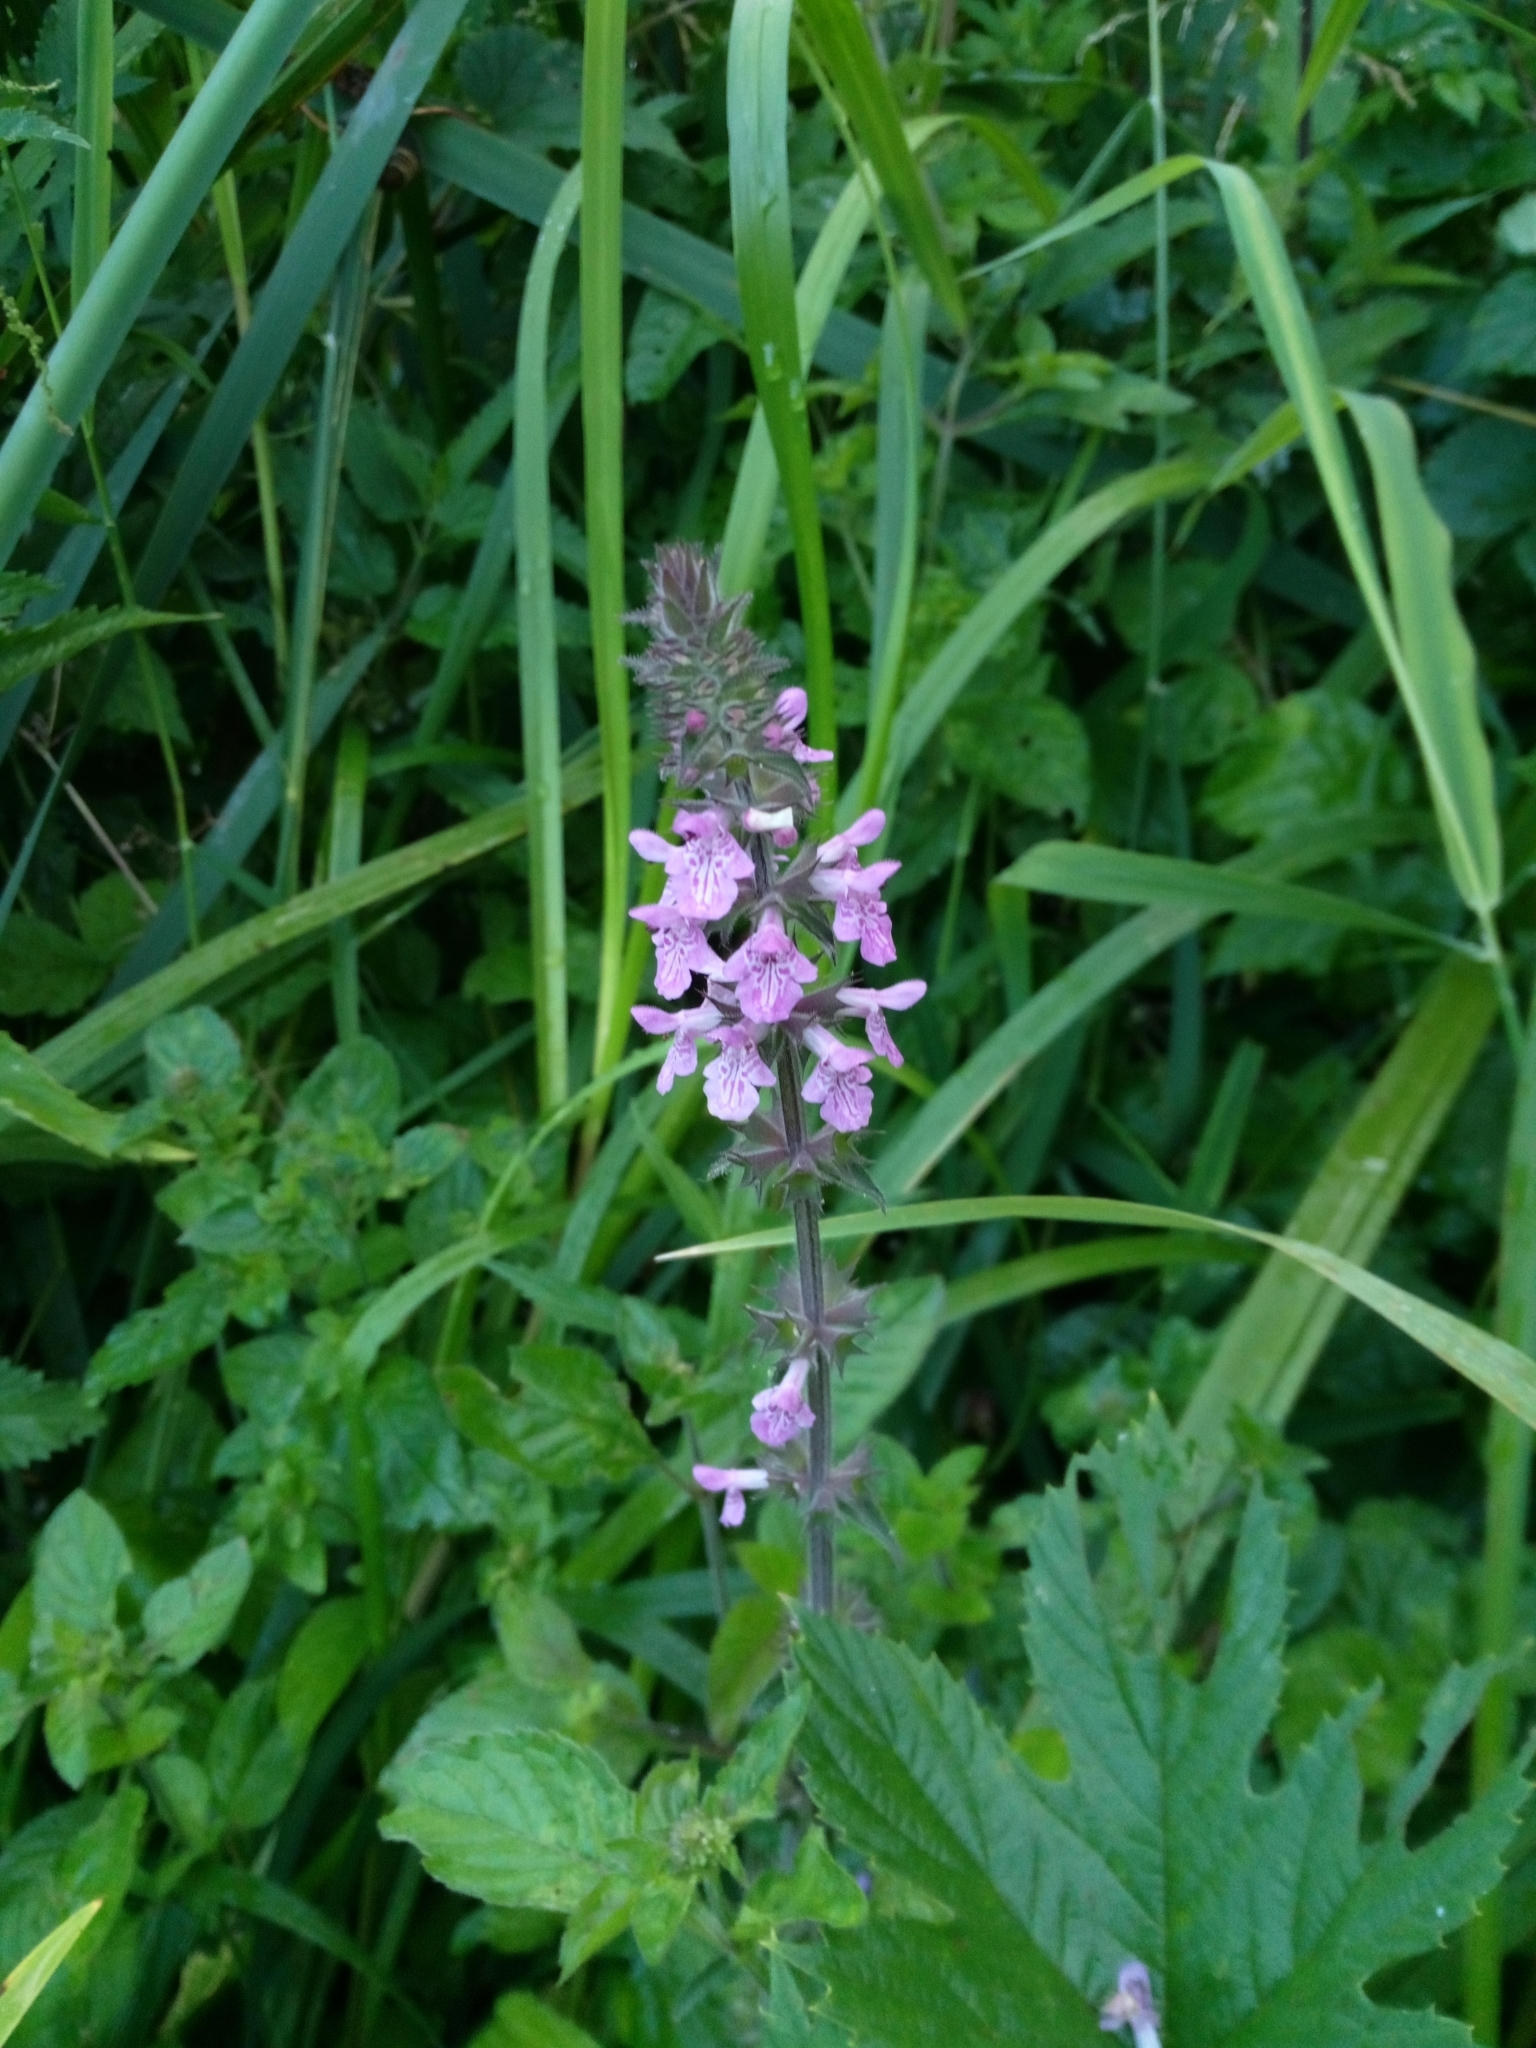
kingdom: Plantae
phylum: Tracheophyta
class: Magnoliopsida
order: Lamiales
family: Lamiaceae
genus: Stachys
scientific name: Stachys palustris
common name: Marsh woundwort
